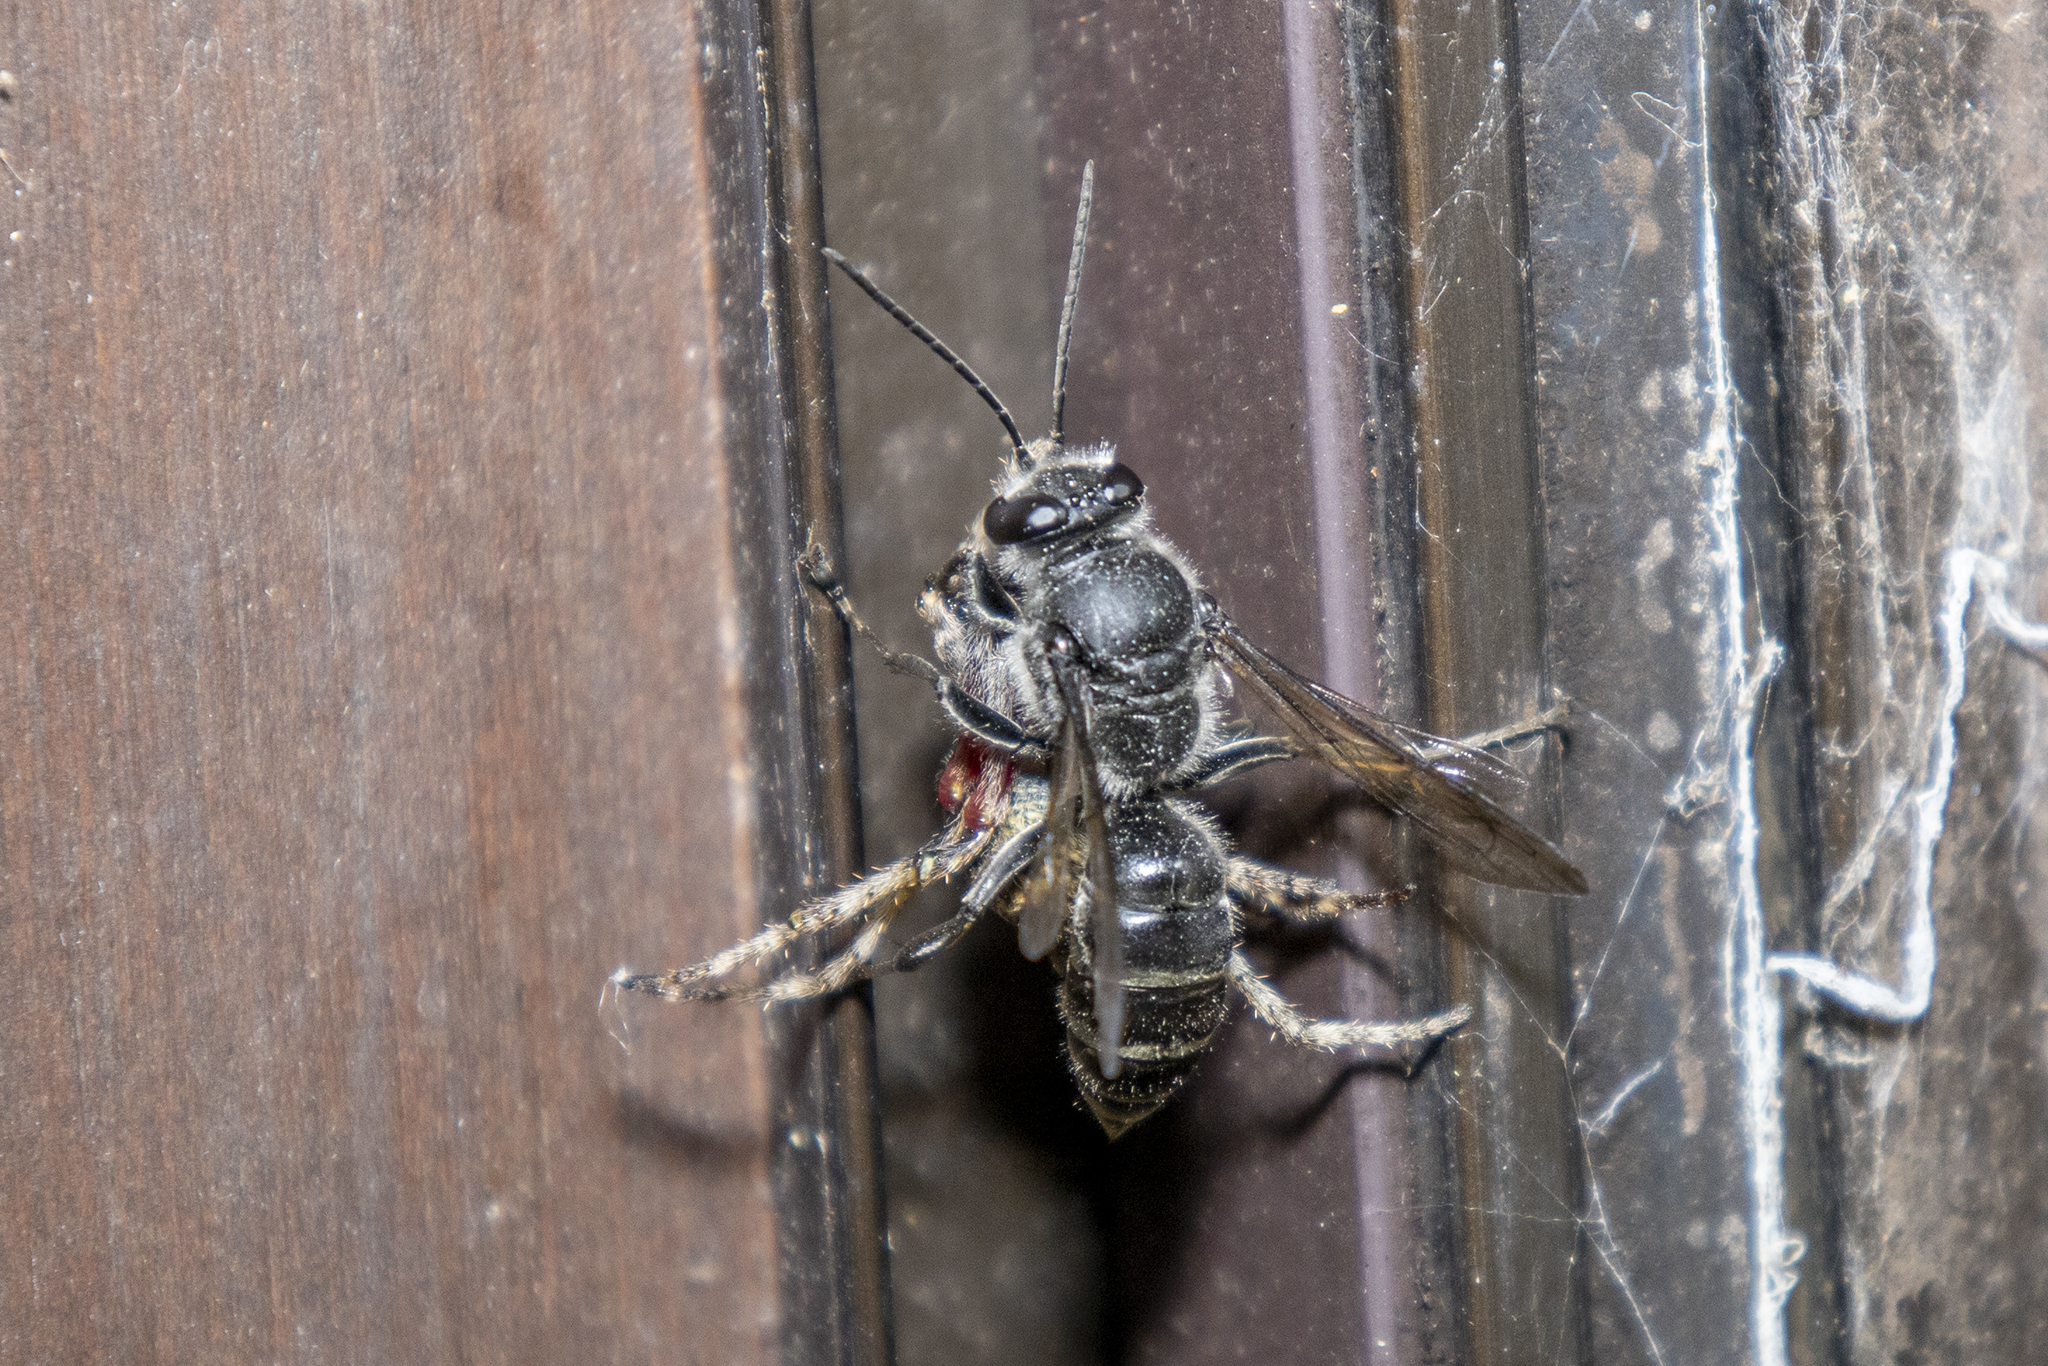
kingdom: Animalia
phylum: Arthropoda
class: Insecta
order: Hymenoptera
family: Crabronidae
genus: Pison
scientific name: Pison spinolae
